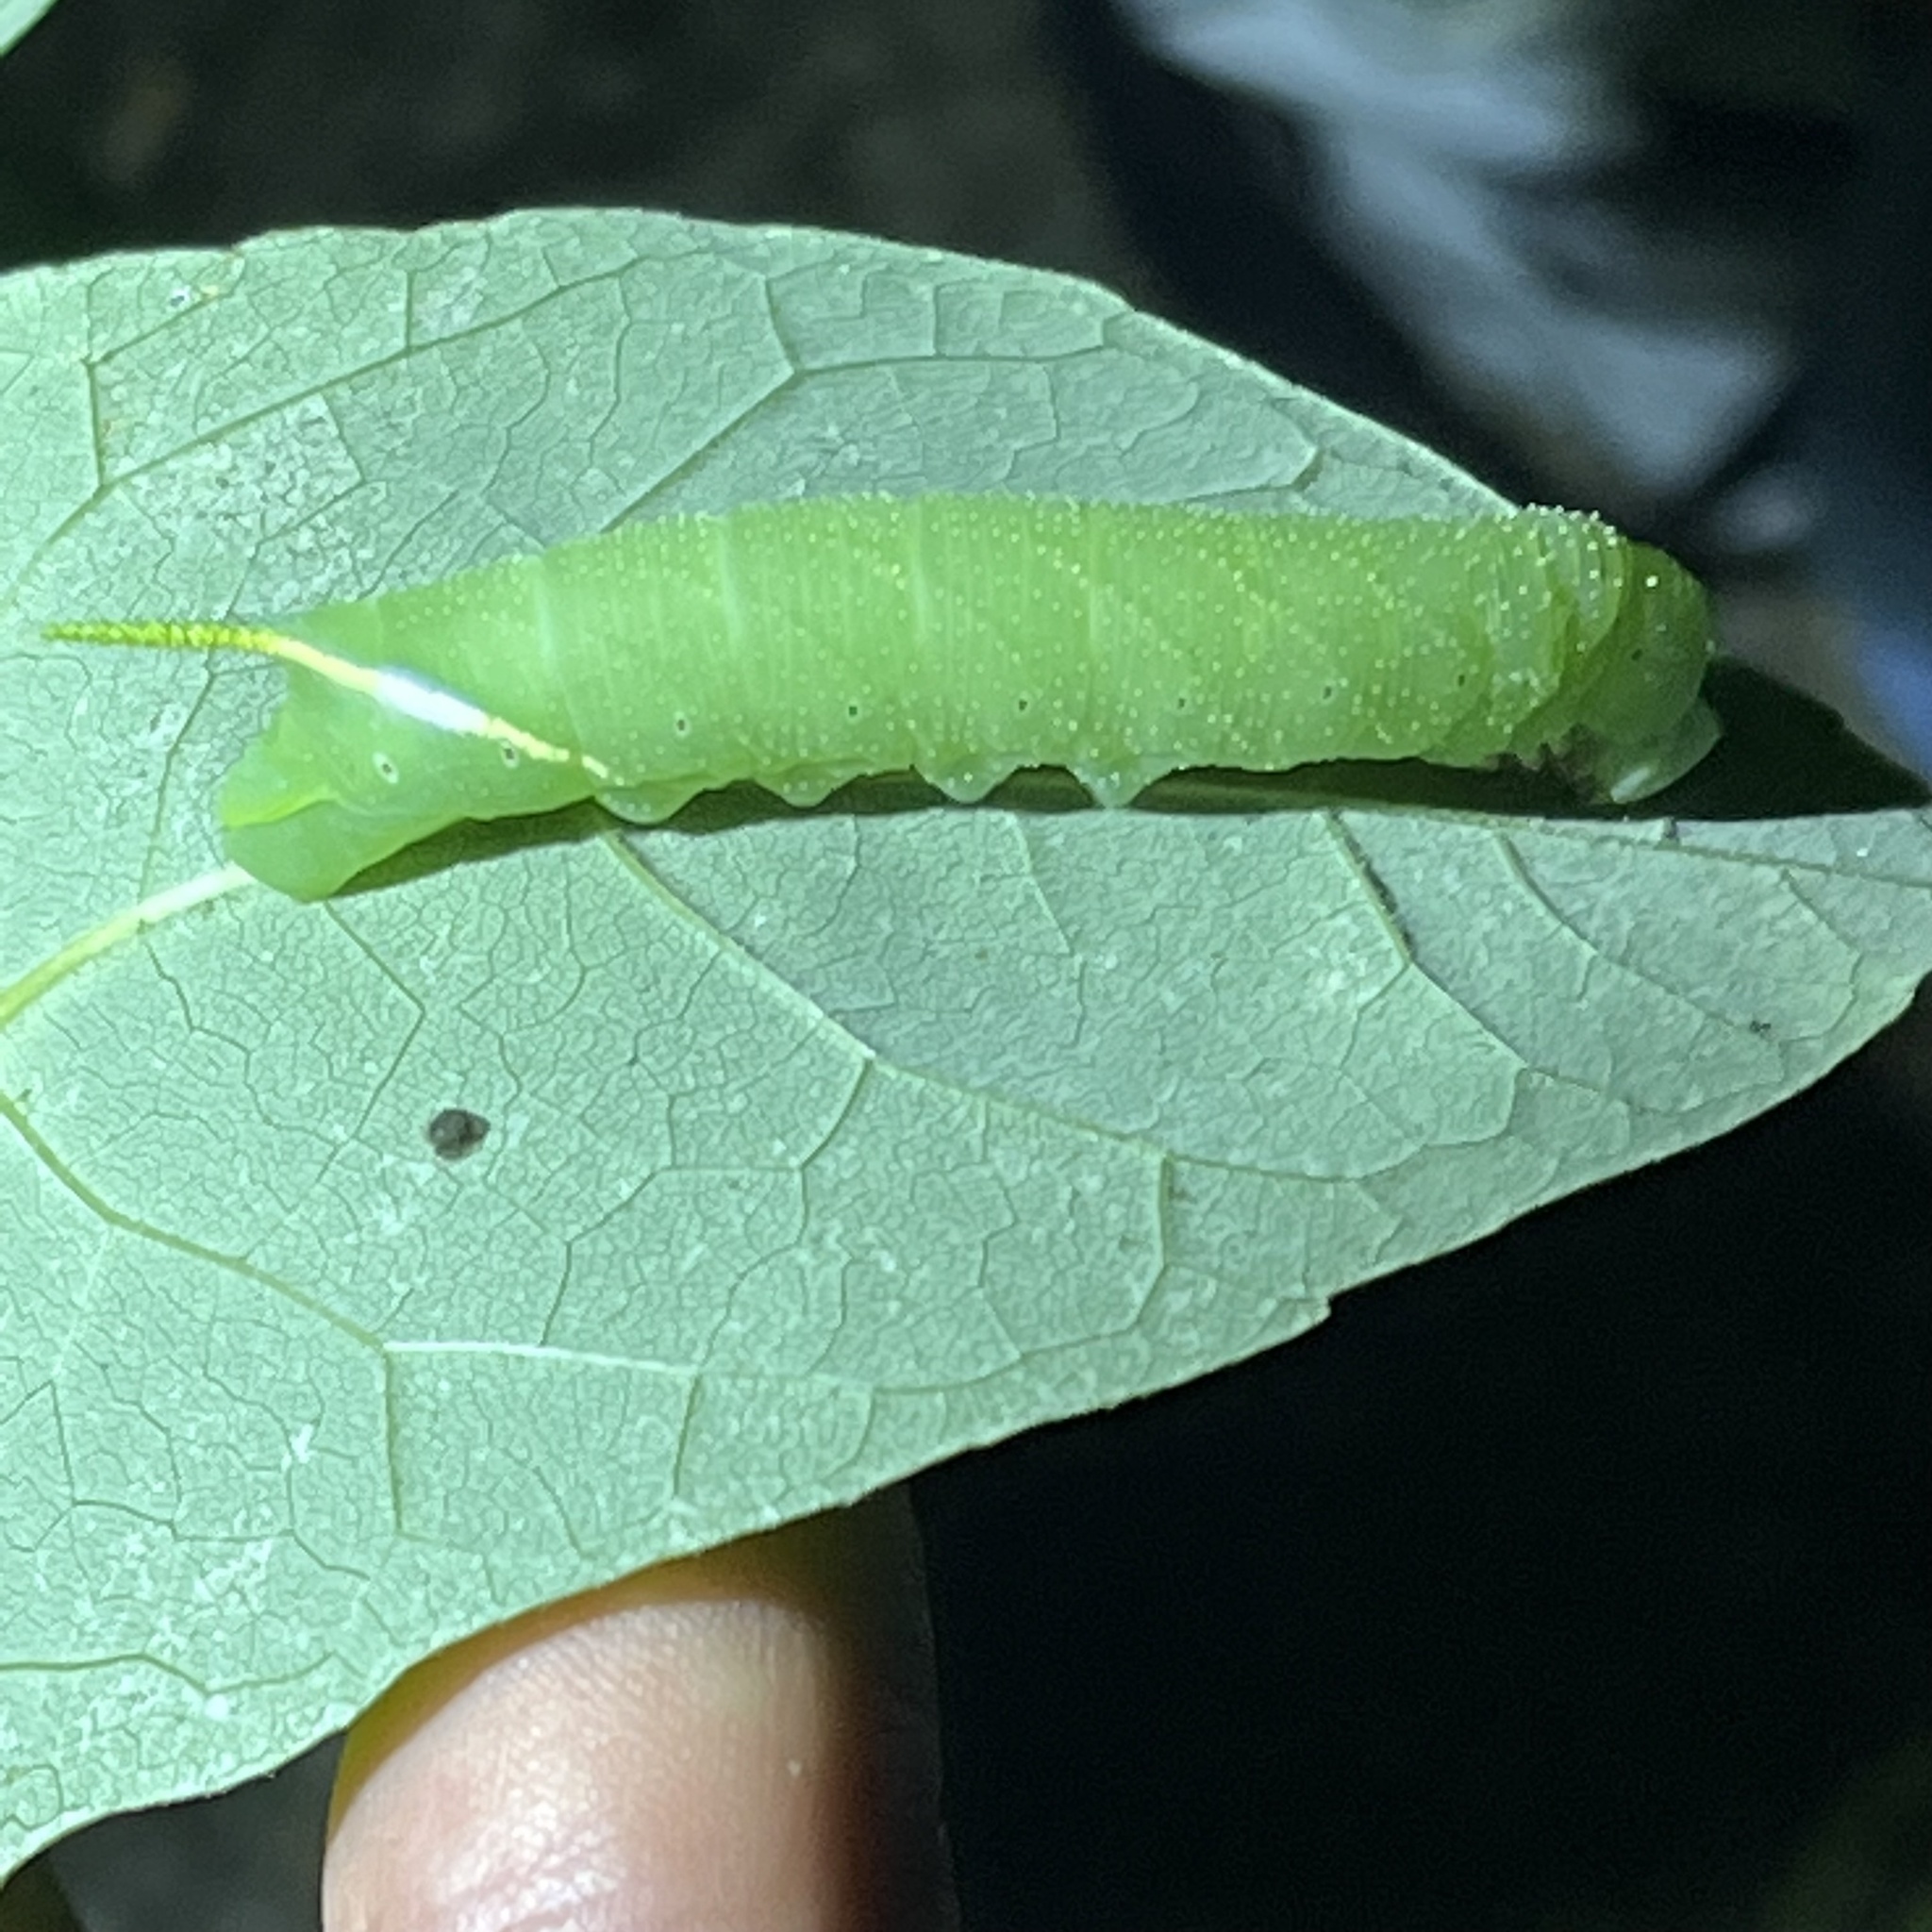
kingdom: Animalia
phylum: Arthropoda
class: Insecta
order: Lepidoptera
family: Sphingidae
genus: Manduca
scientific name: Manduca jasminearum
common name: Ash sphinx
